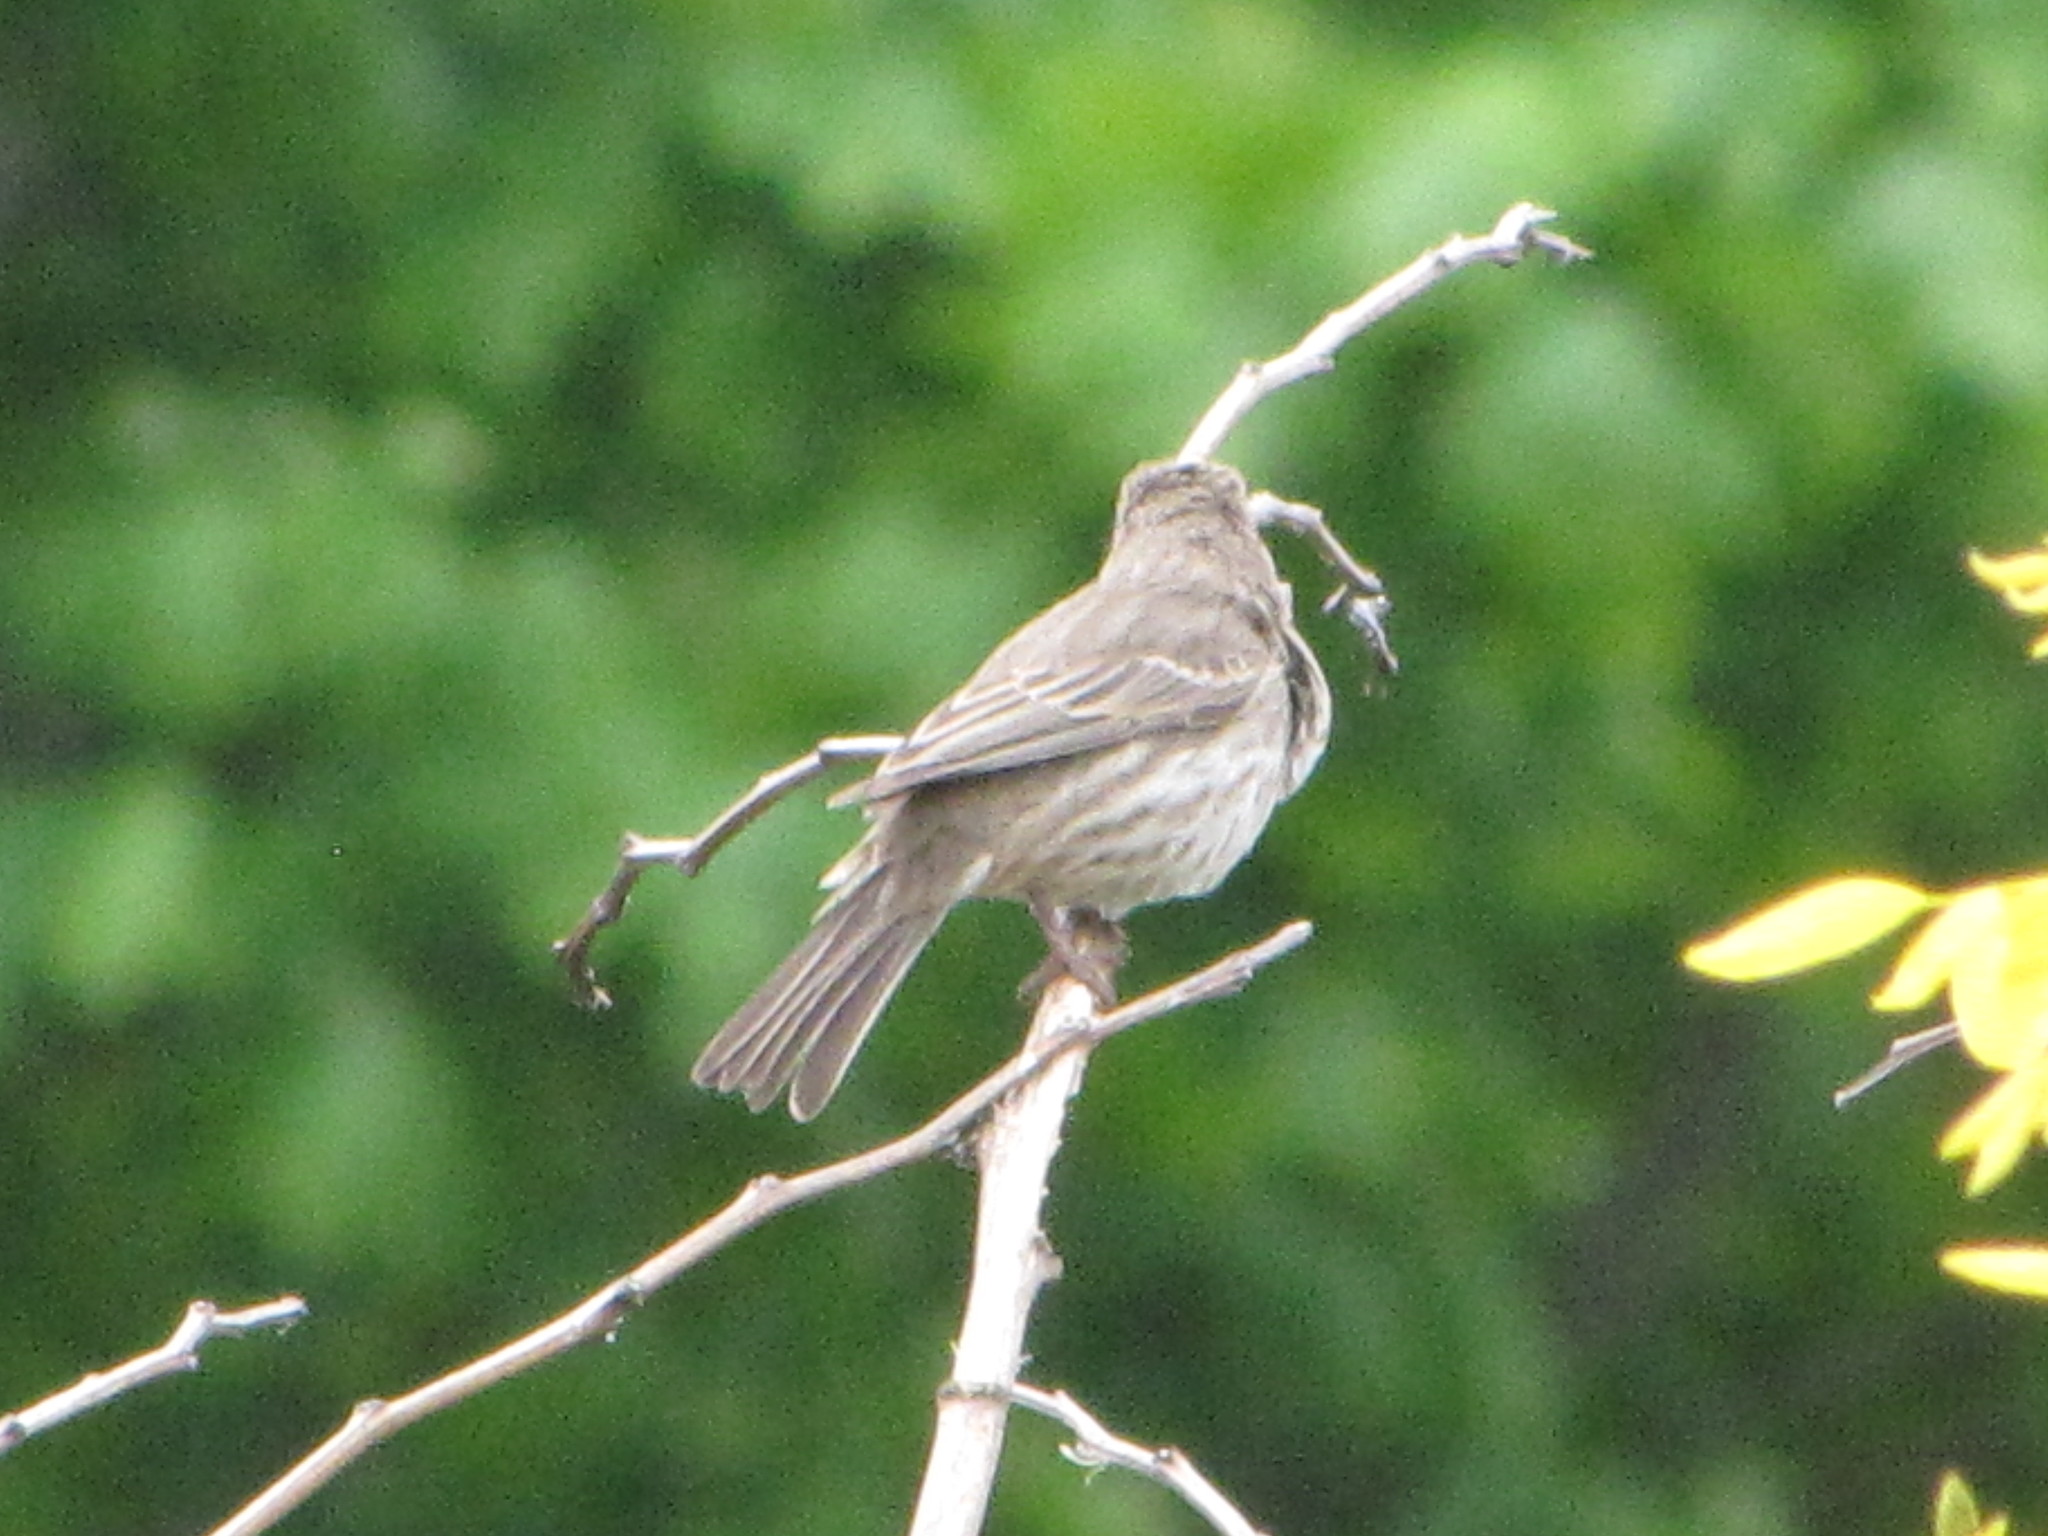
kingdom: Animalia
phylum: Chordata
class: Aves
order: Passeriformes
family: Fringillidae
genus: Haemorhous
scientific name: Haemorhous mexicanus
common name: House finch
